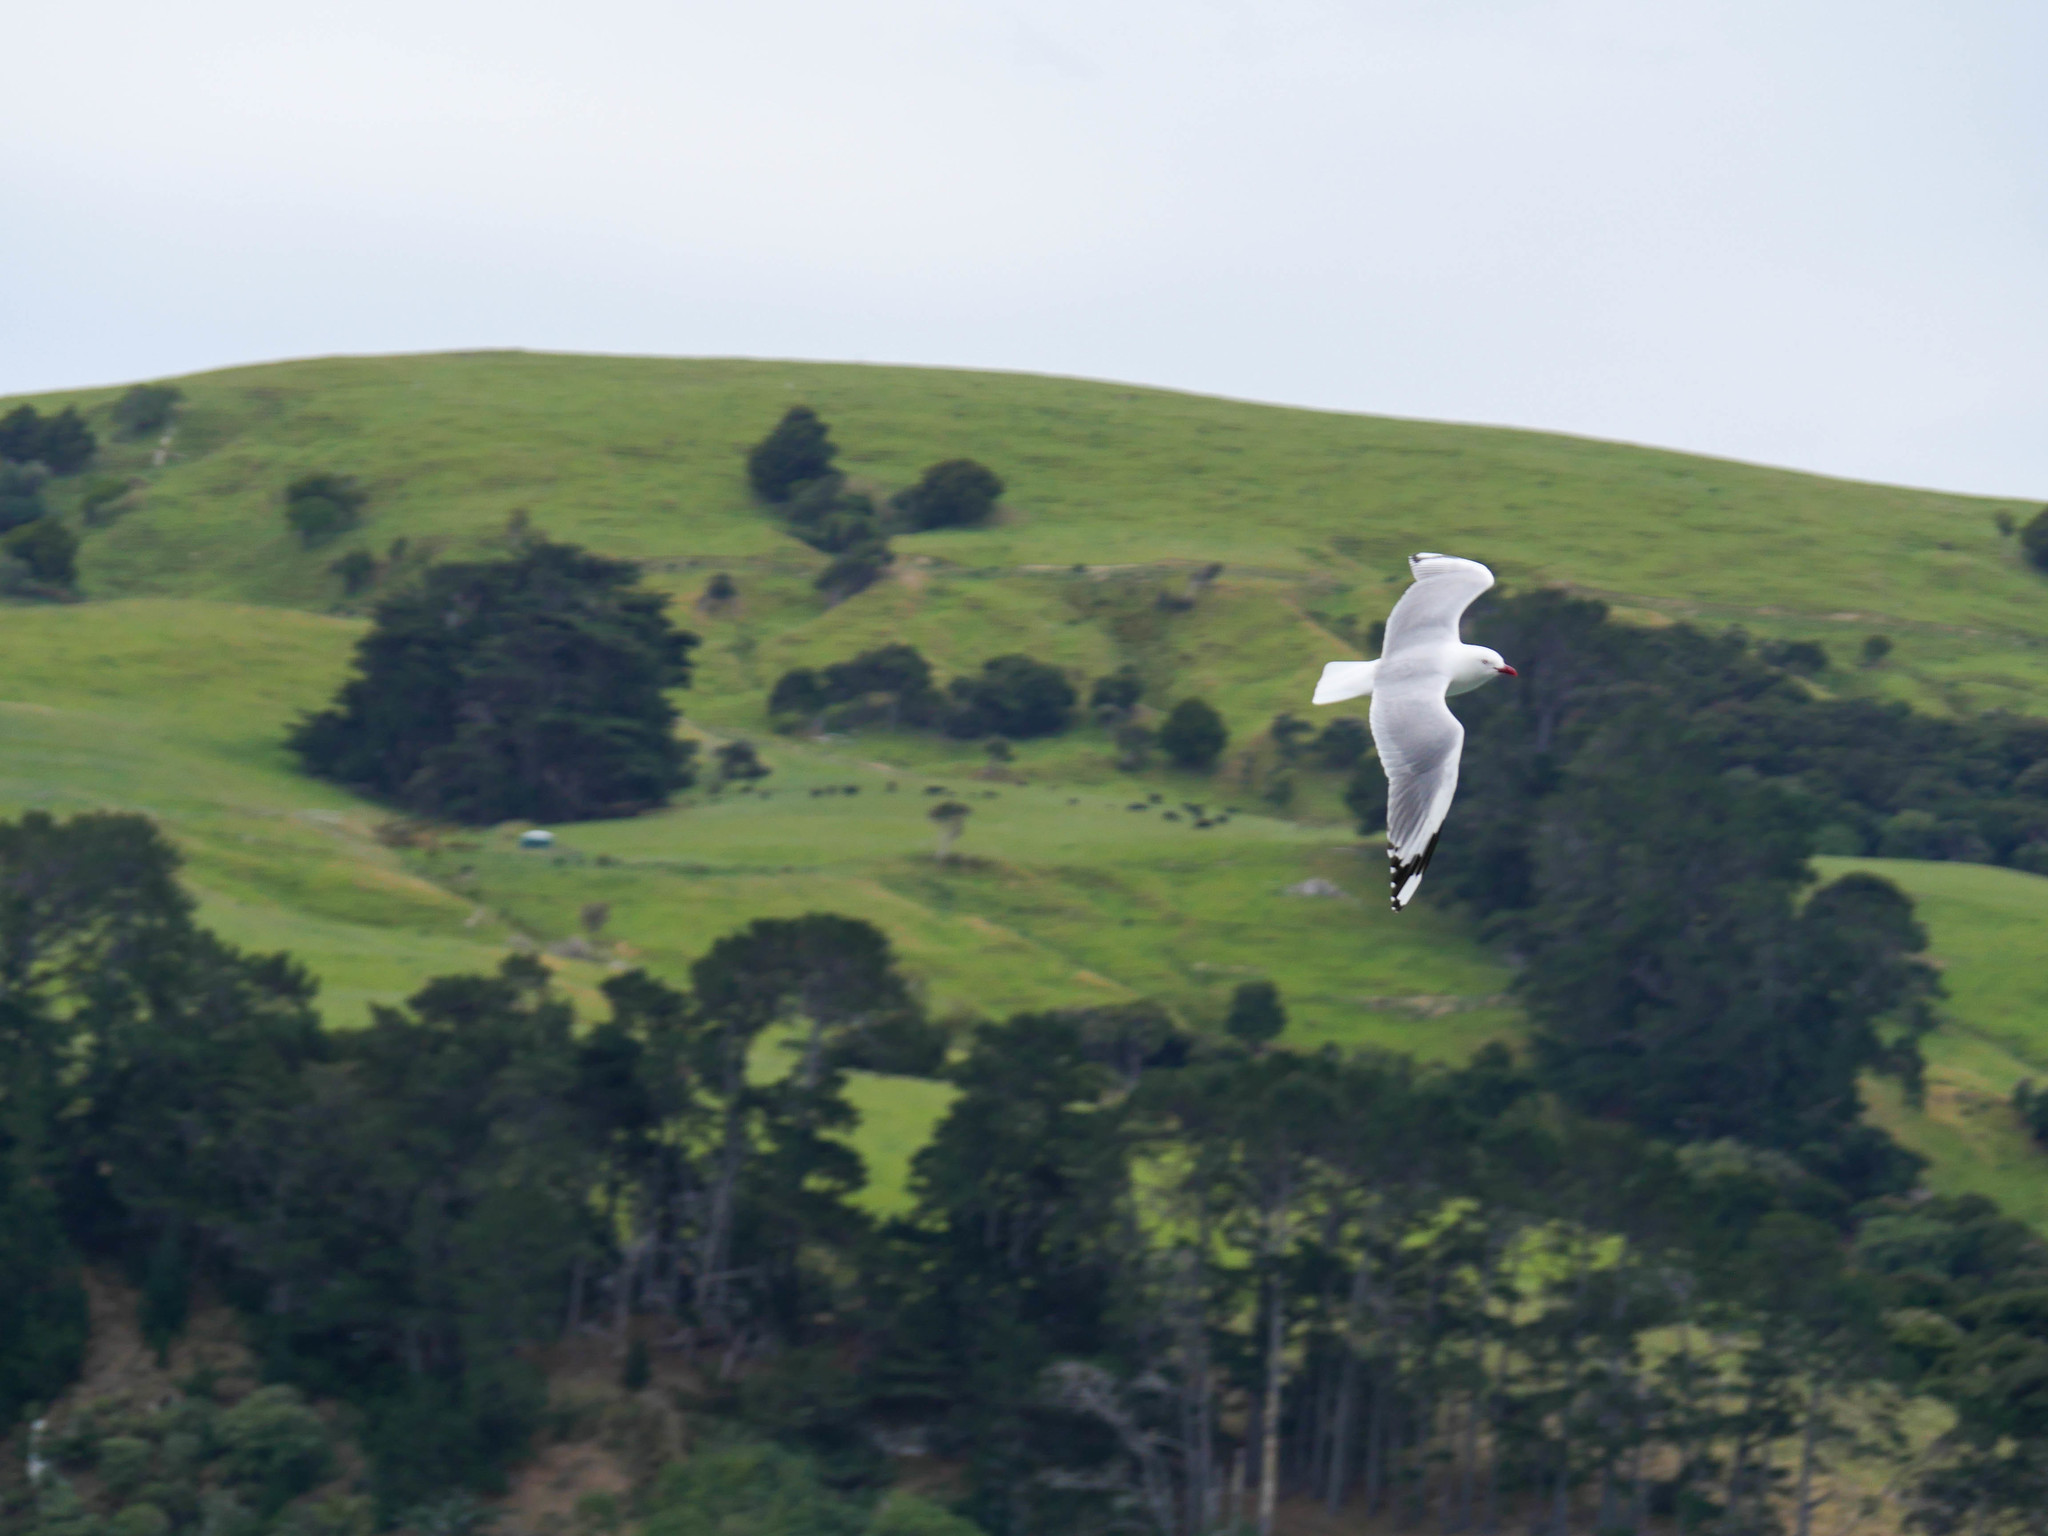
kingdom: Animalia
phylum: Chordata
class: Aves
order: Charadriiformes
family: Laridae
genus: Chroicocephalus
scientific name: Chroicocephalus novaehollandiae
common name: Silver gull
